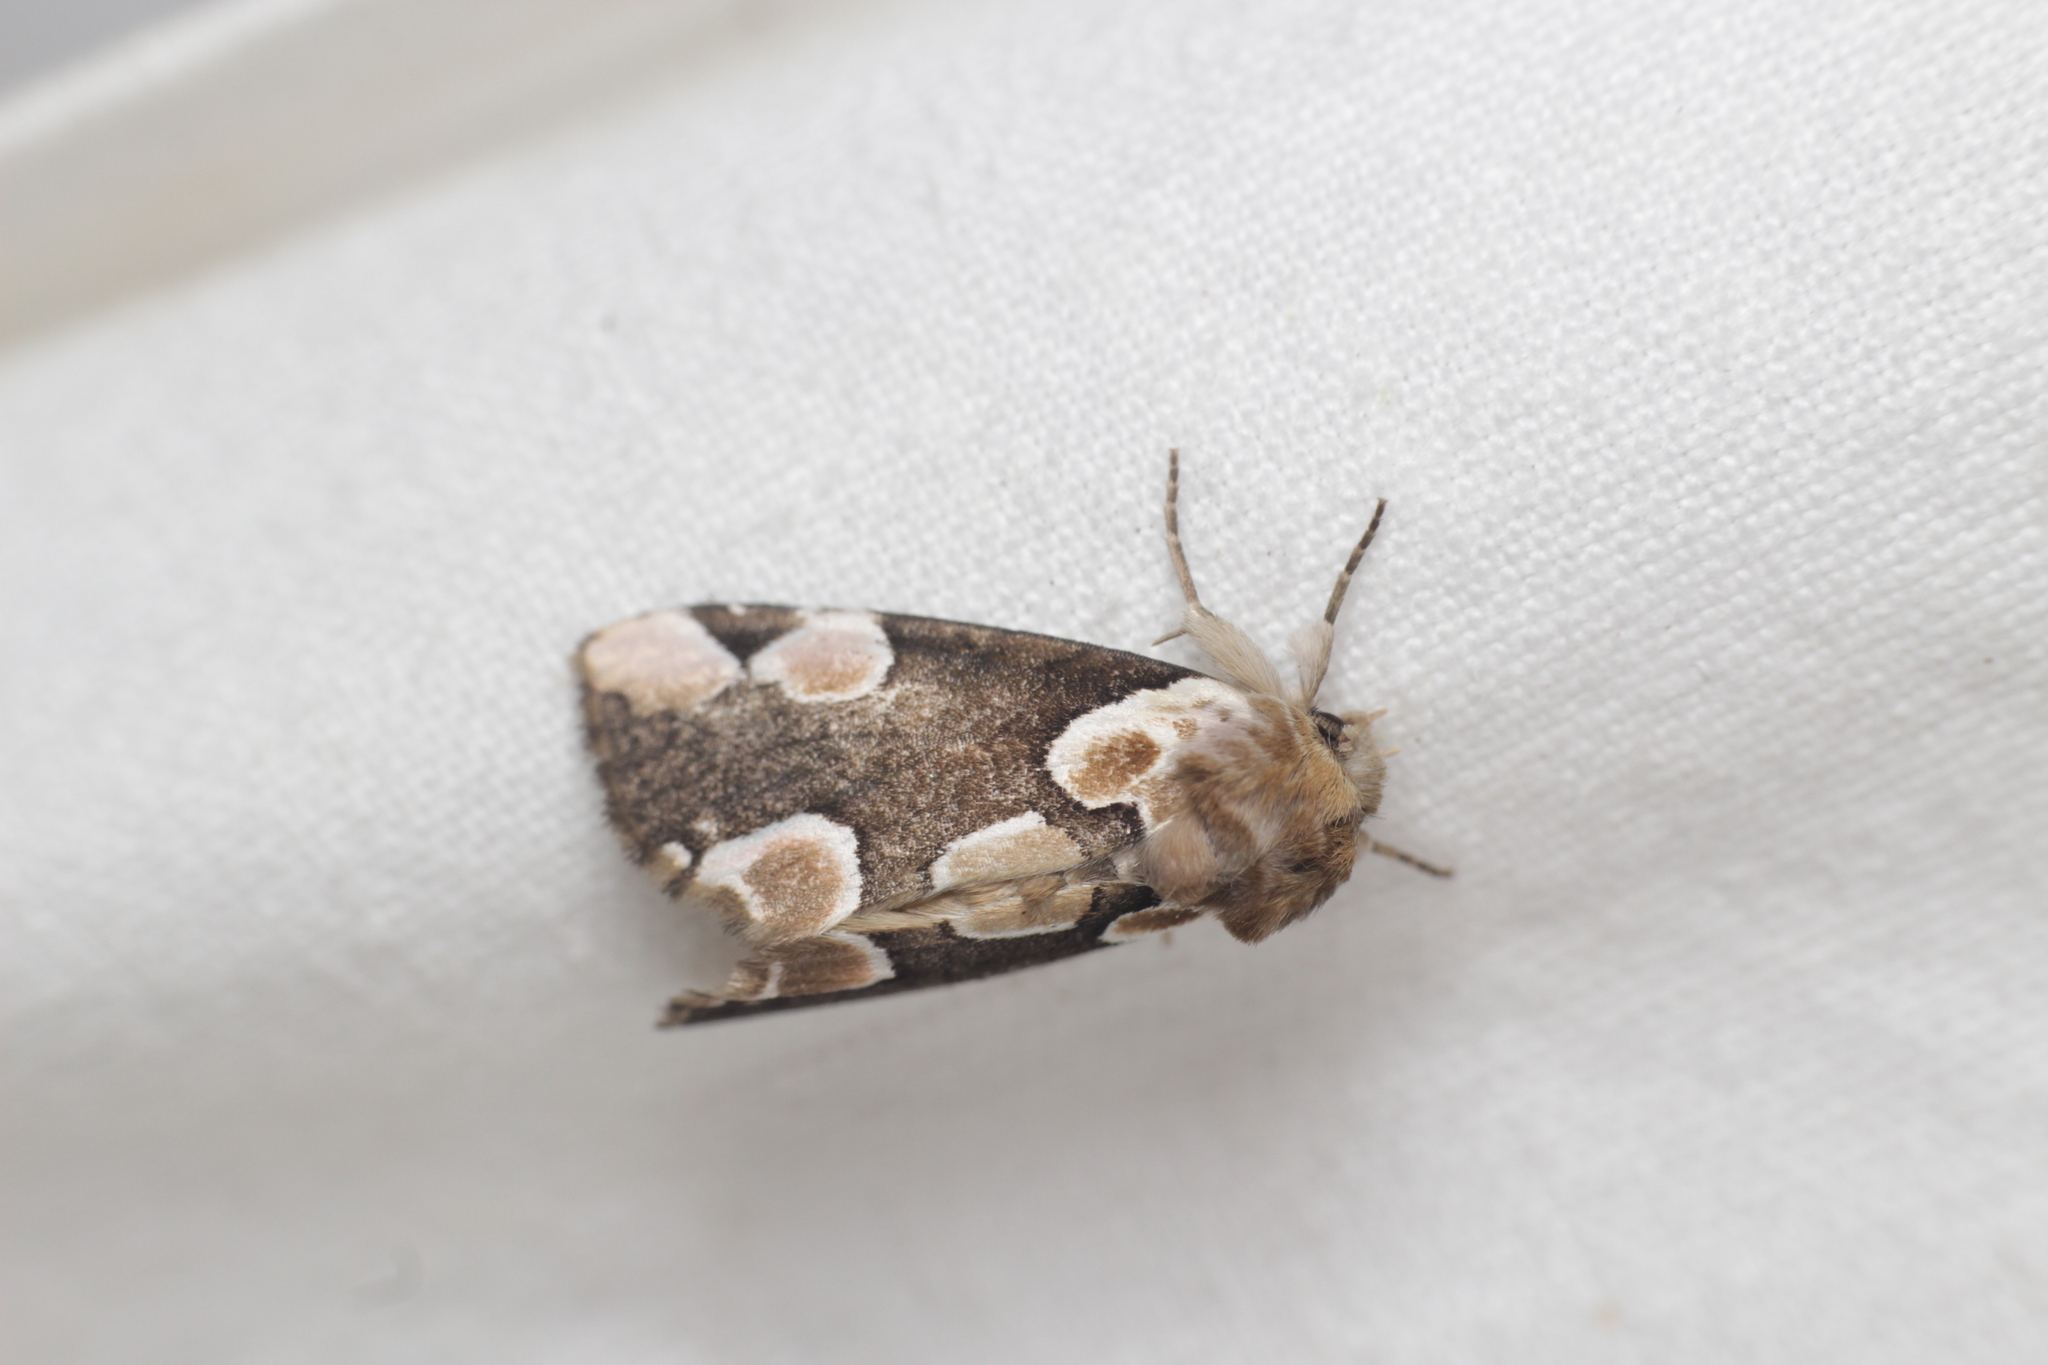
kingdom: Animalia
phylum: Arthropoda
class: Insecta
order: Lepidoptera
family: Drepanidae
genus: Thyatira
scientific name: Thyatira batis
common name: Peach blossom
